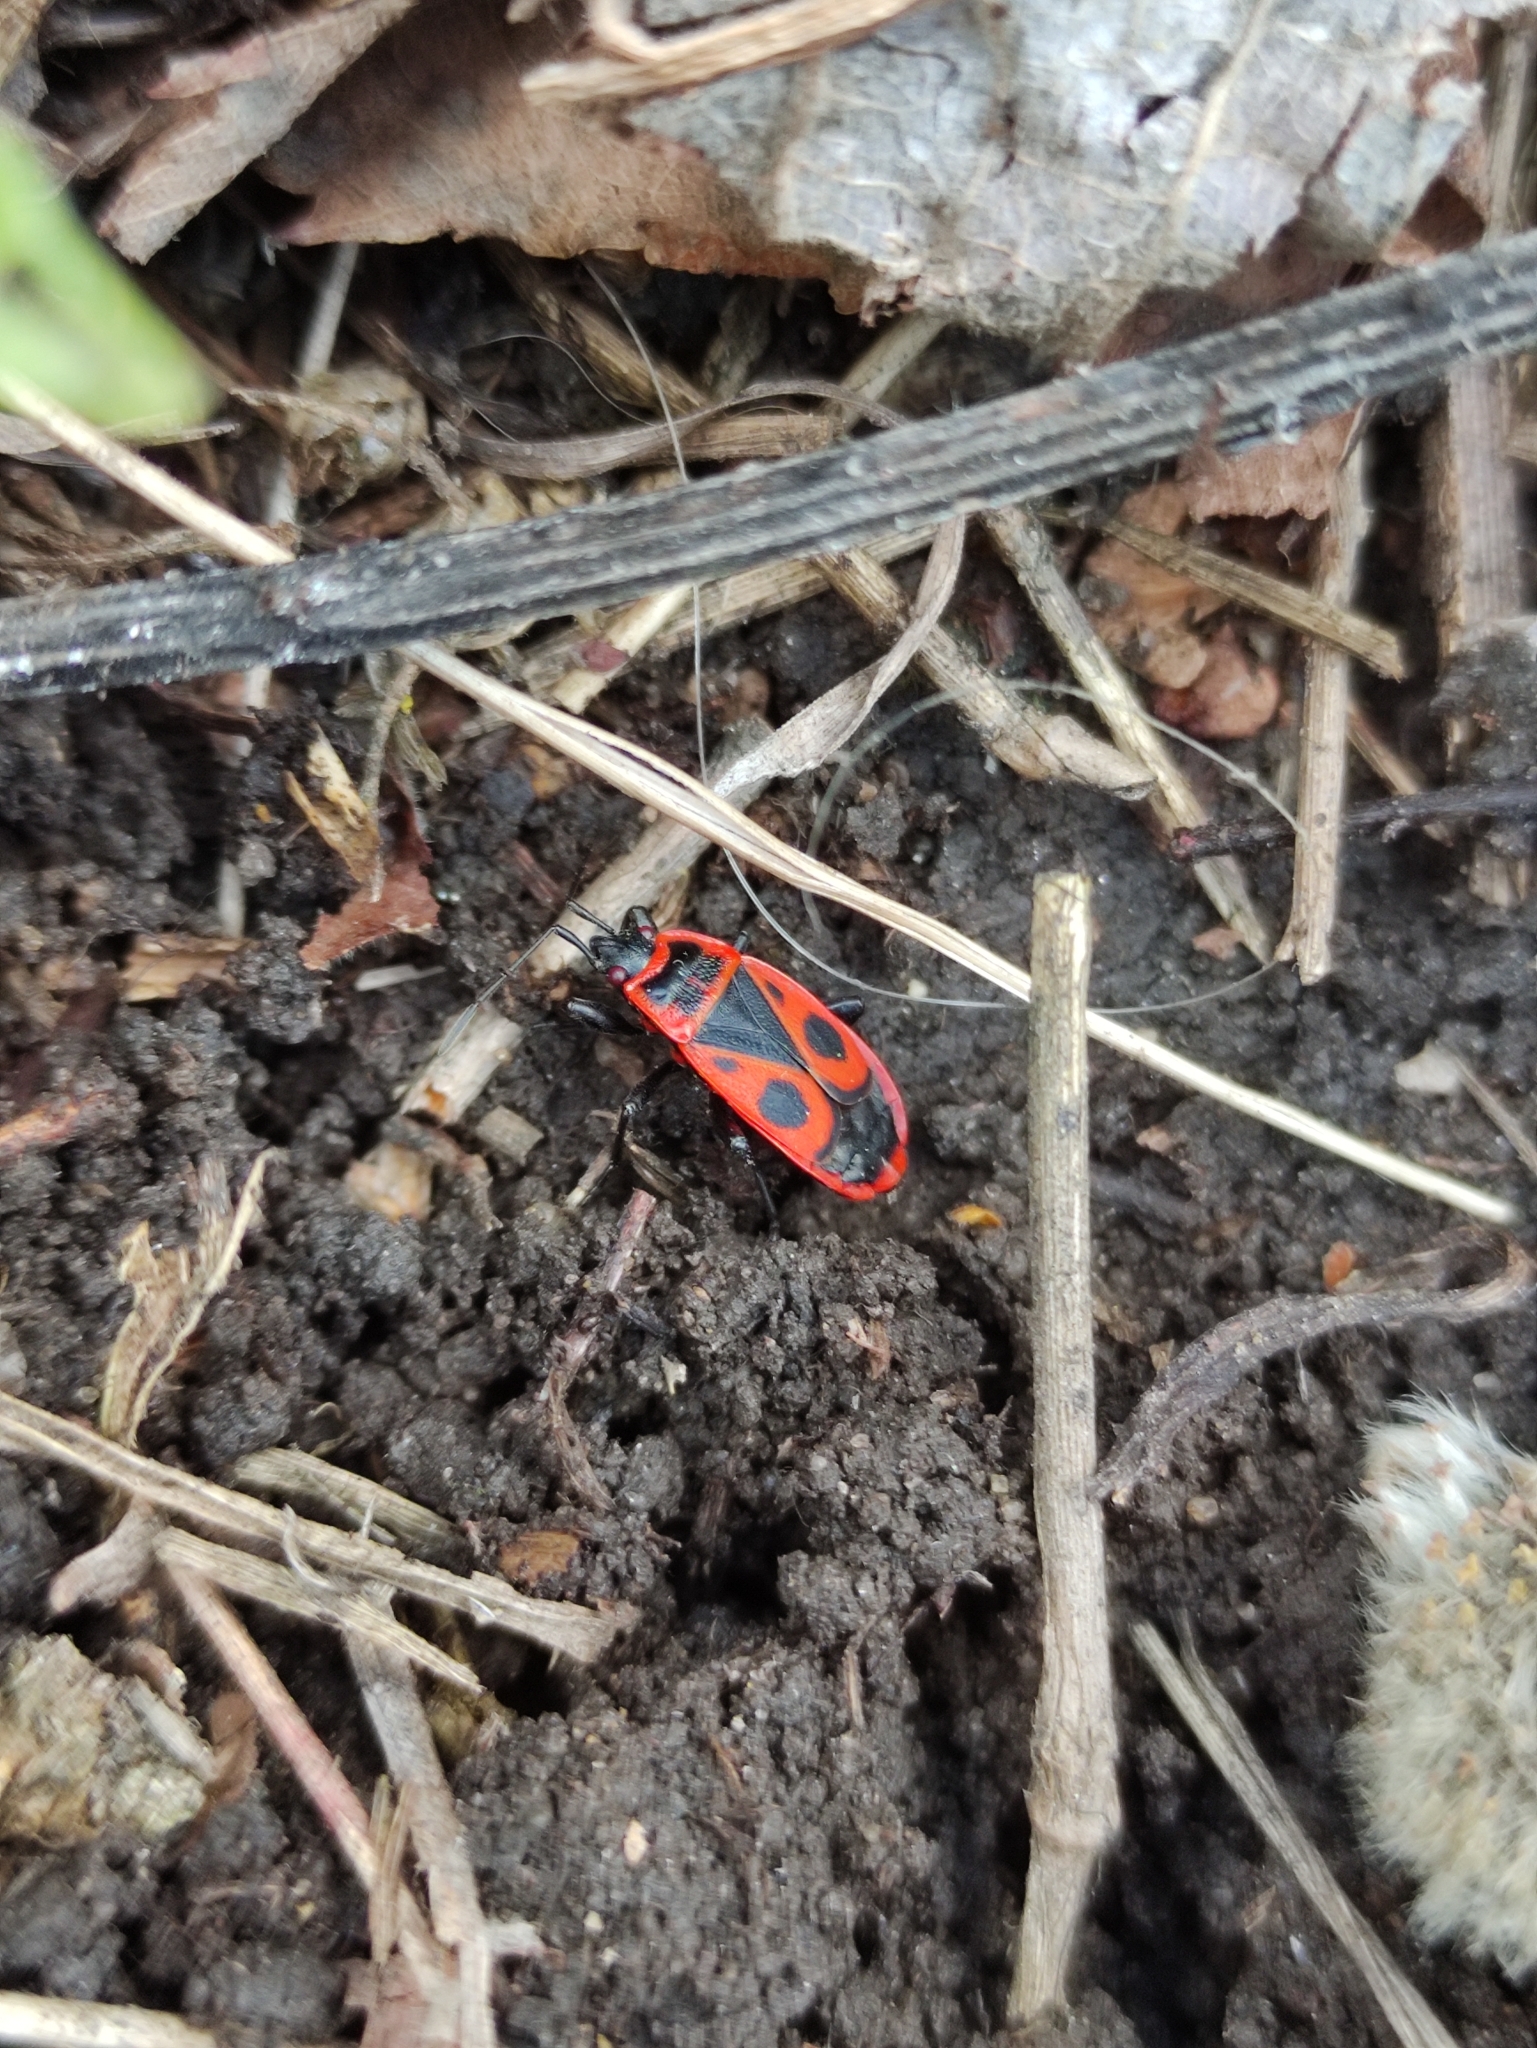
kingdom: Animalia
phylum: Arthropoda
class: Insecta
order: Hemiptera
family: Pyrrhocoridae
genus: Pyrrhocoris
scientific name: Pyrrhocoris apterus
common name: Firebug
